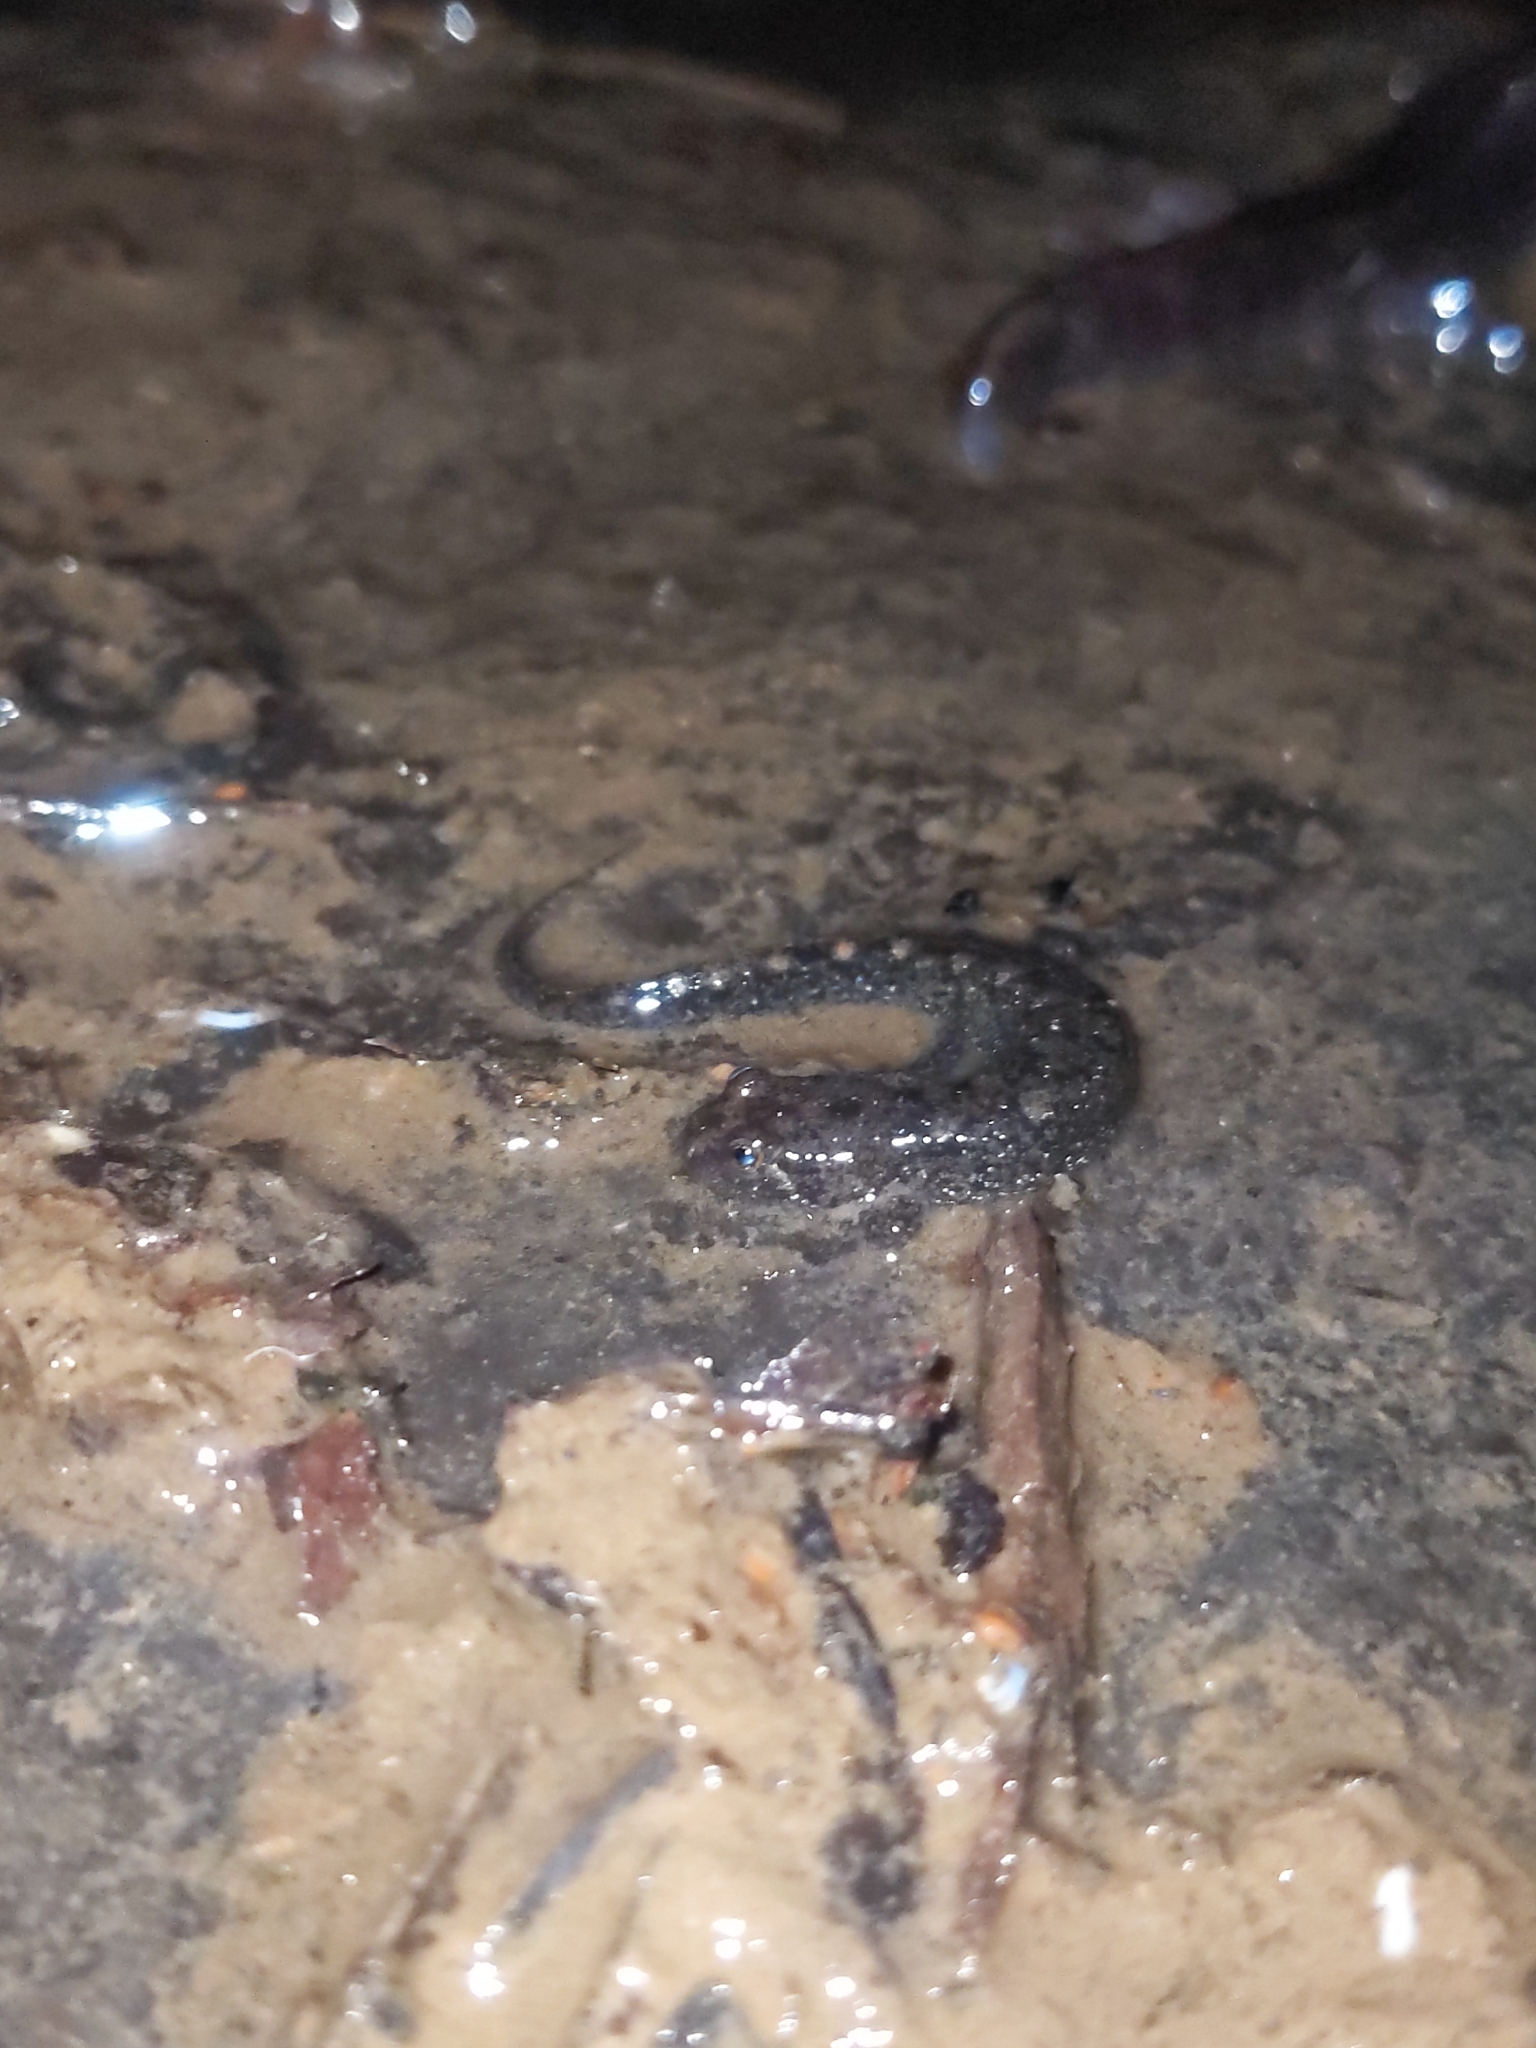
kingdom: Animalia
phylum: Chordata
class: Amphibia
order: Caudata
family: Plethodontidae
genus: Desmognathus
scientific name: Desmognathus monticola
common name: Seal salamander
